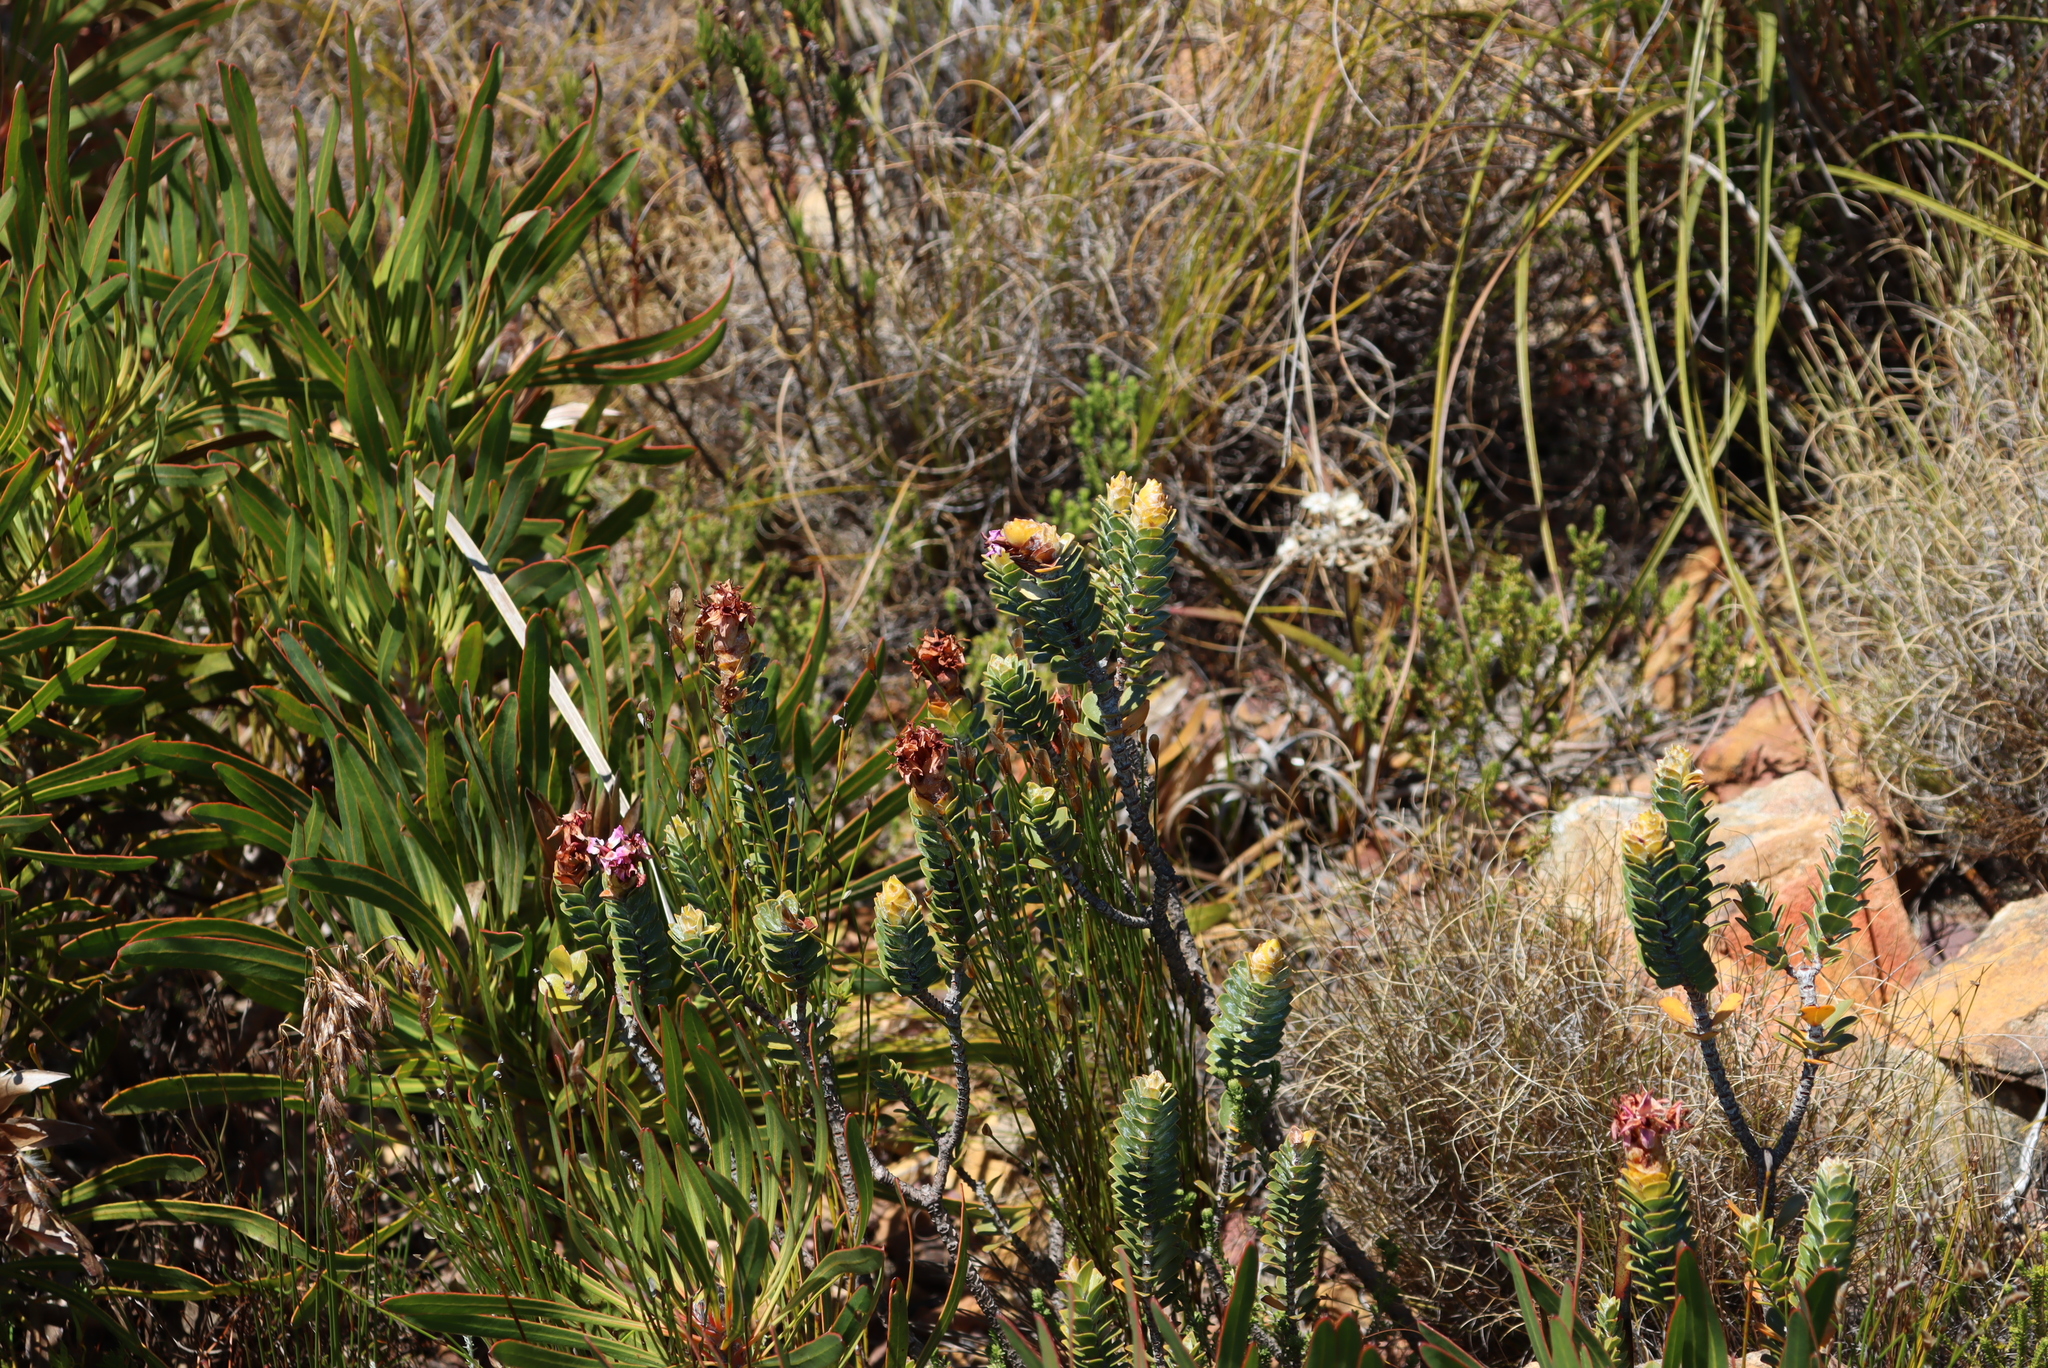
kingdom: Plantae
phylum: Tracheophyta
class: Magnoliopsida
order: Myrtales
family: Penaeaceae
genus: Saltera
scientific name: Saltera sarcocolla
